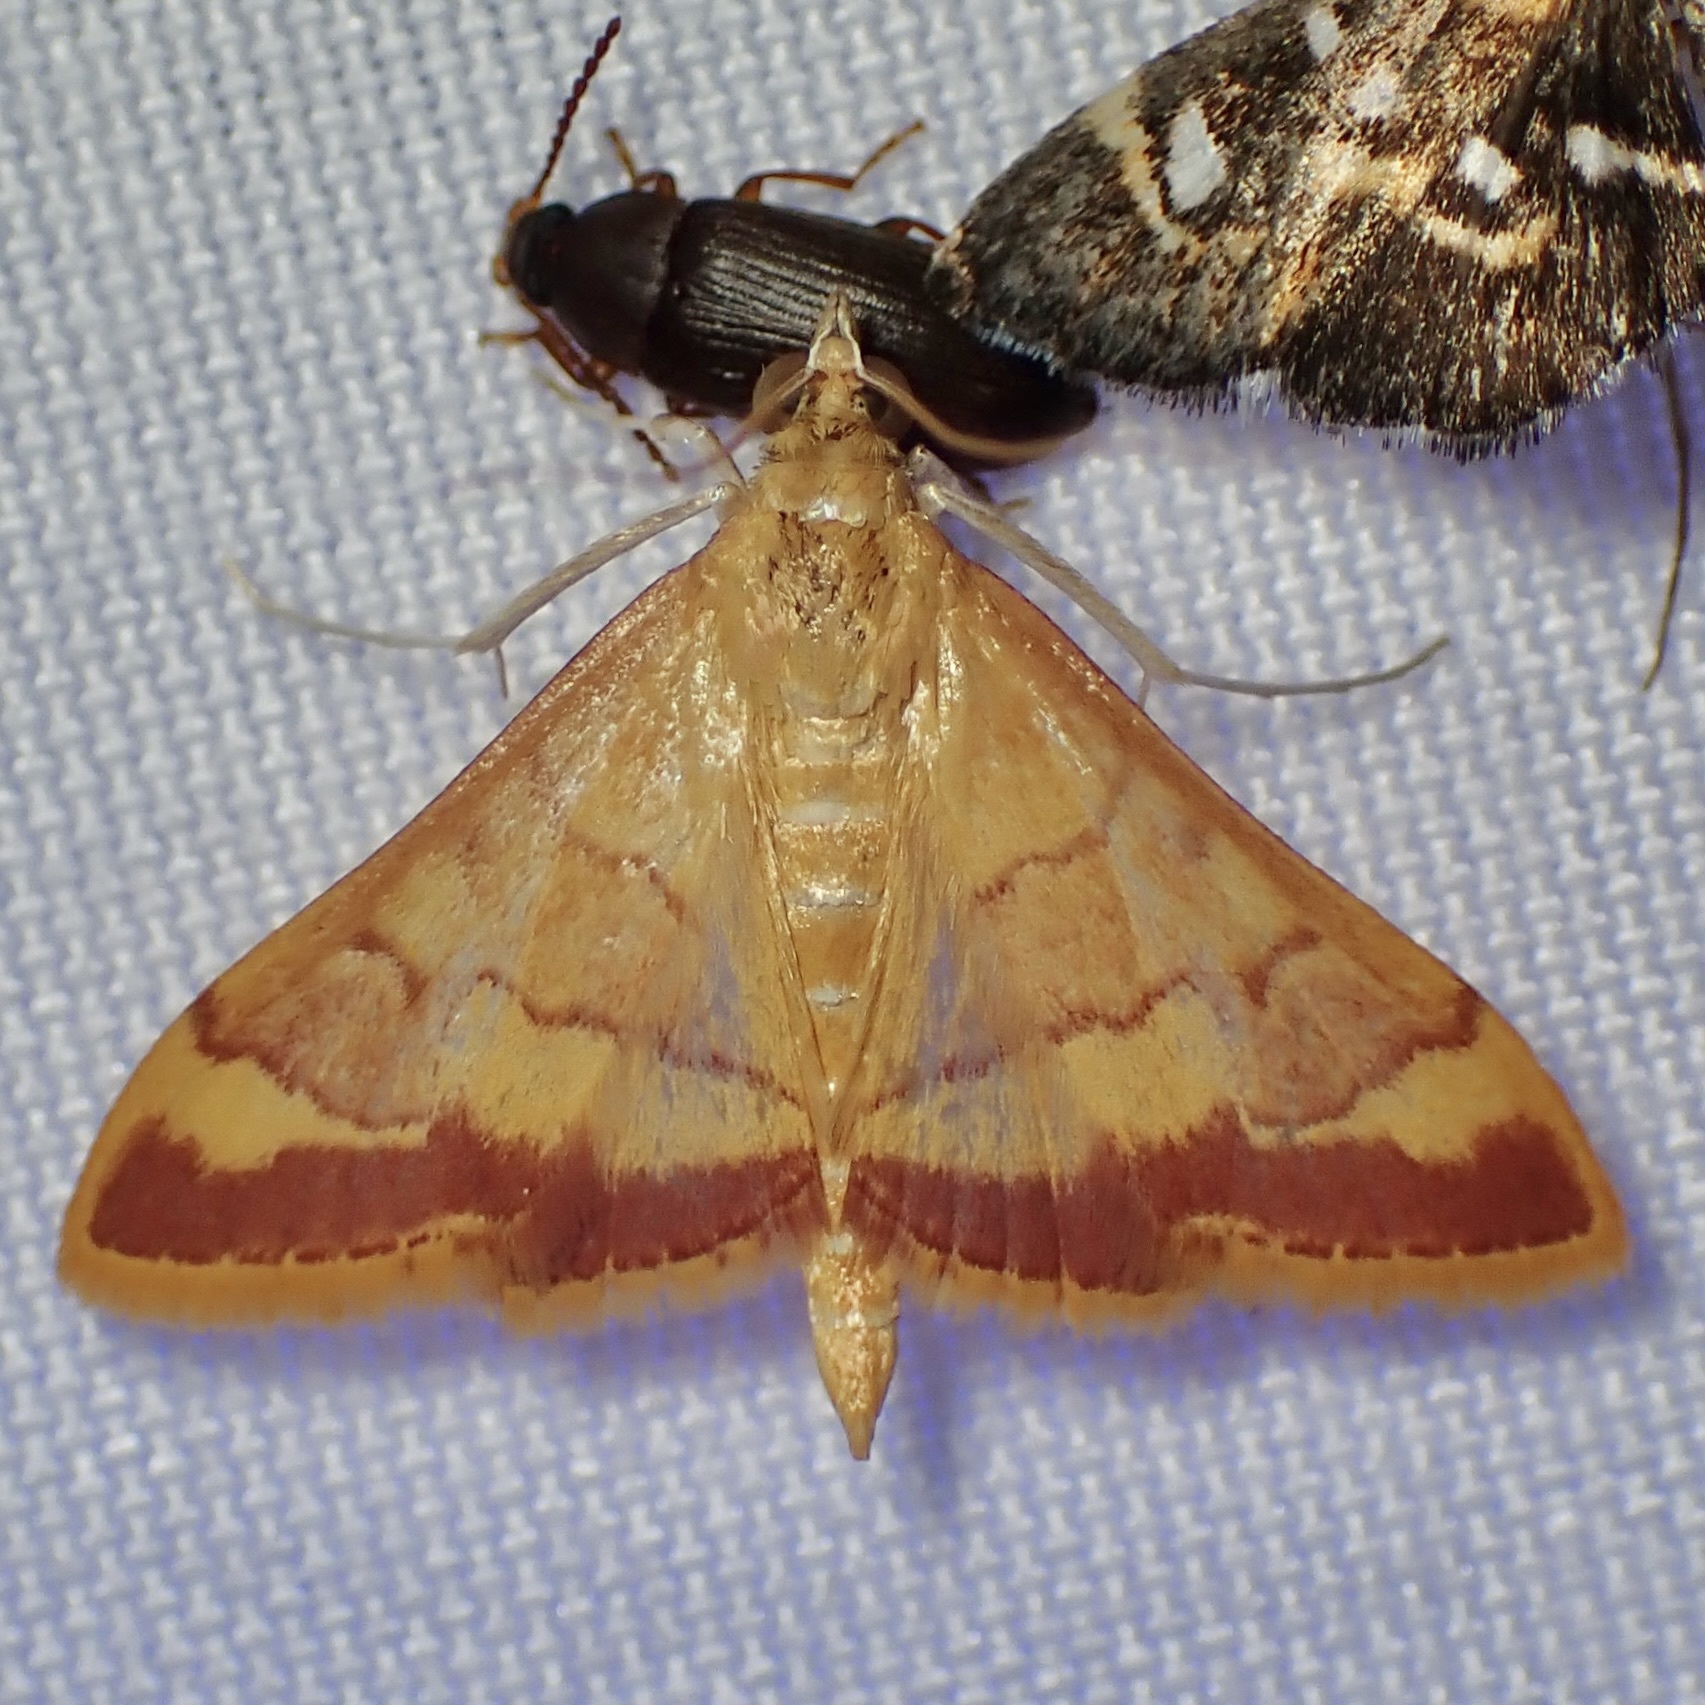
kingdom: Animalia
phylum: Arthropoda
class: Insecta
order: Lepidoptera
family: Crambidae
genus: Pyrausta
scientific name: Pyrausta pseudonythesalis
